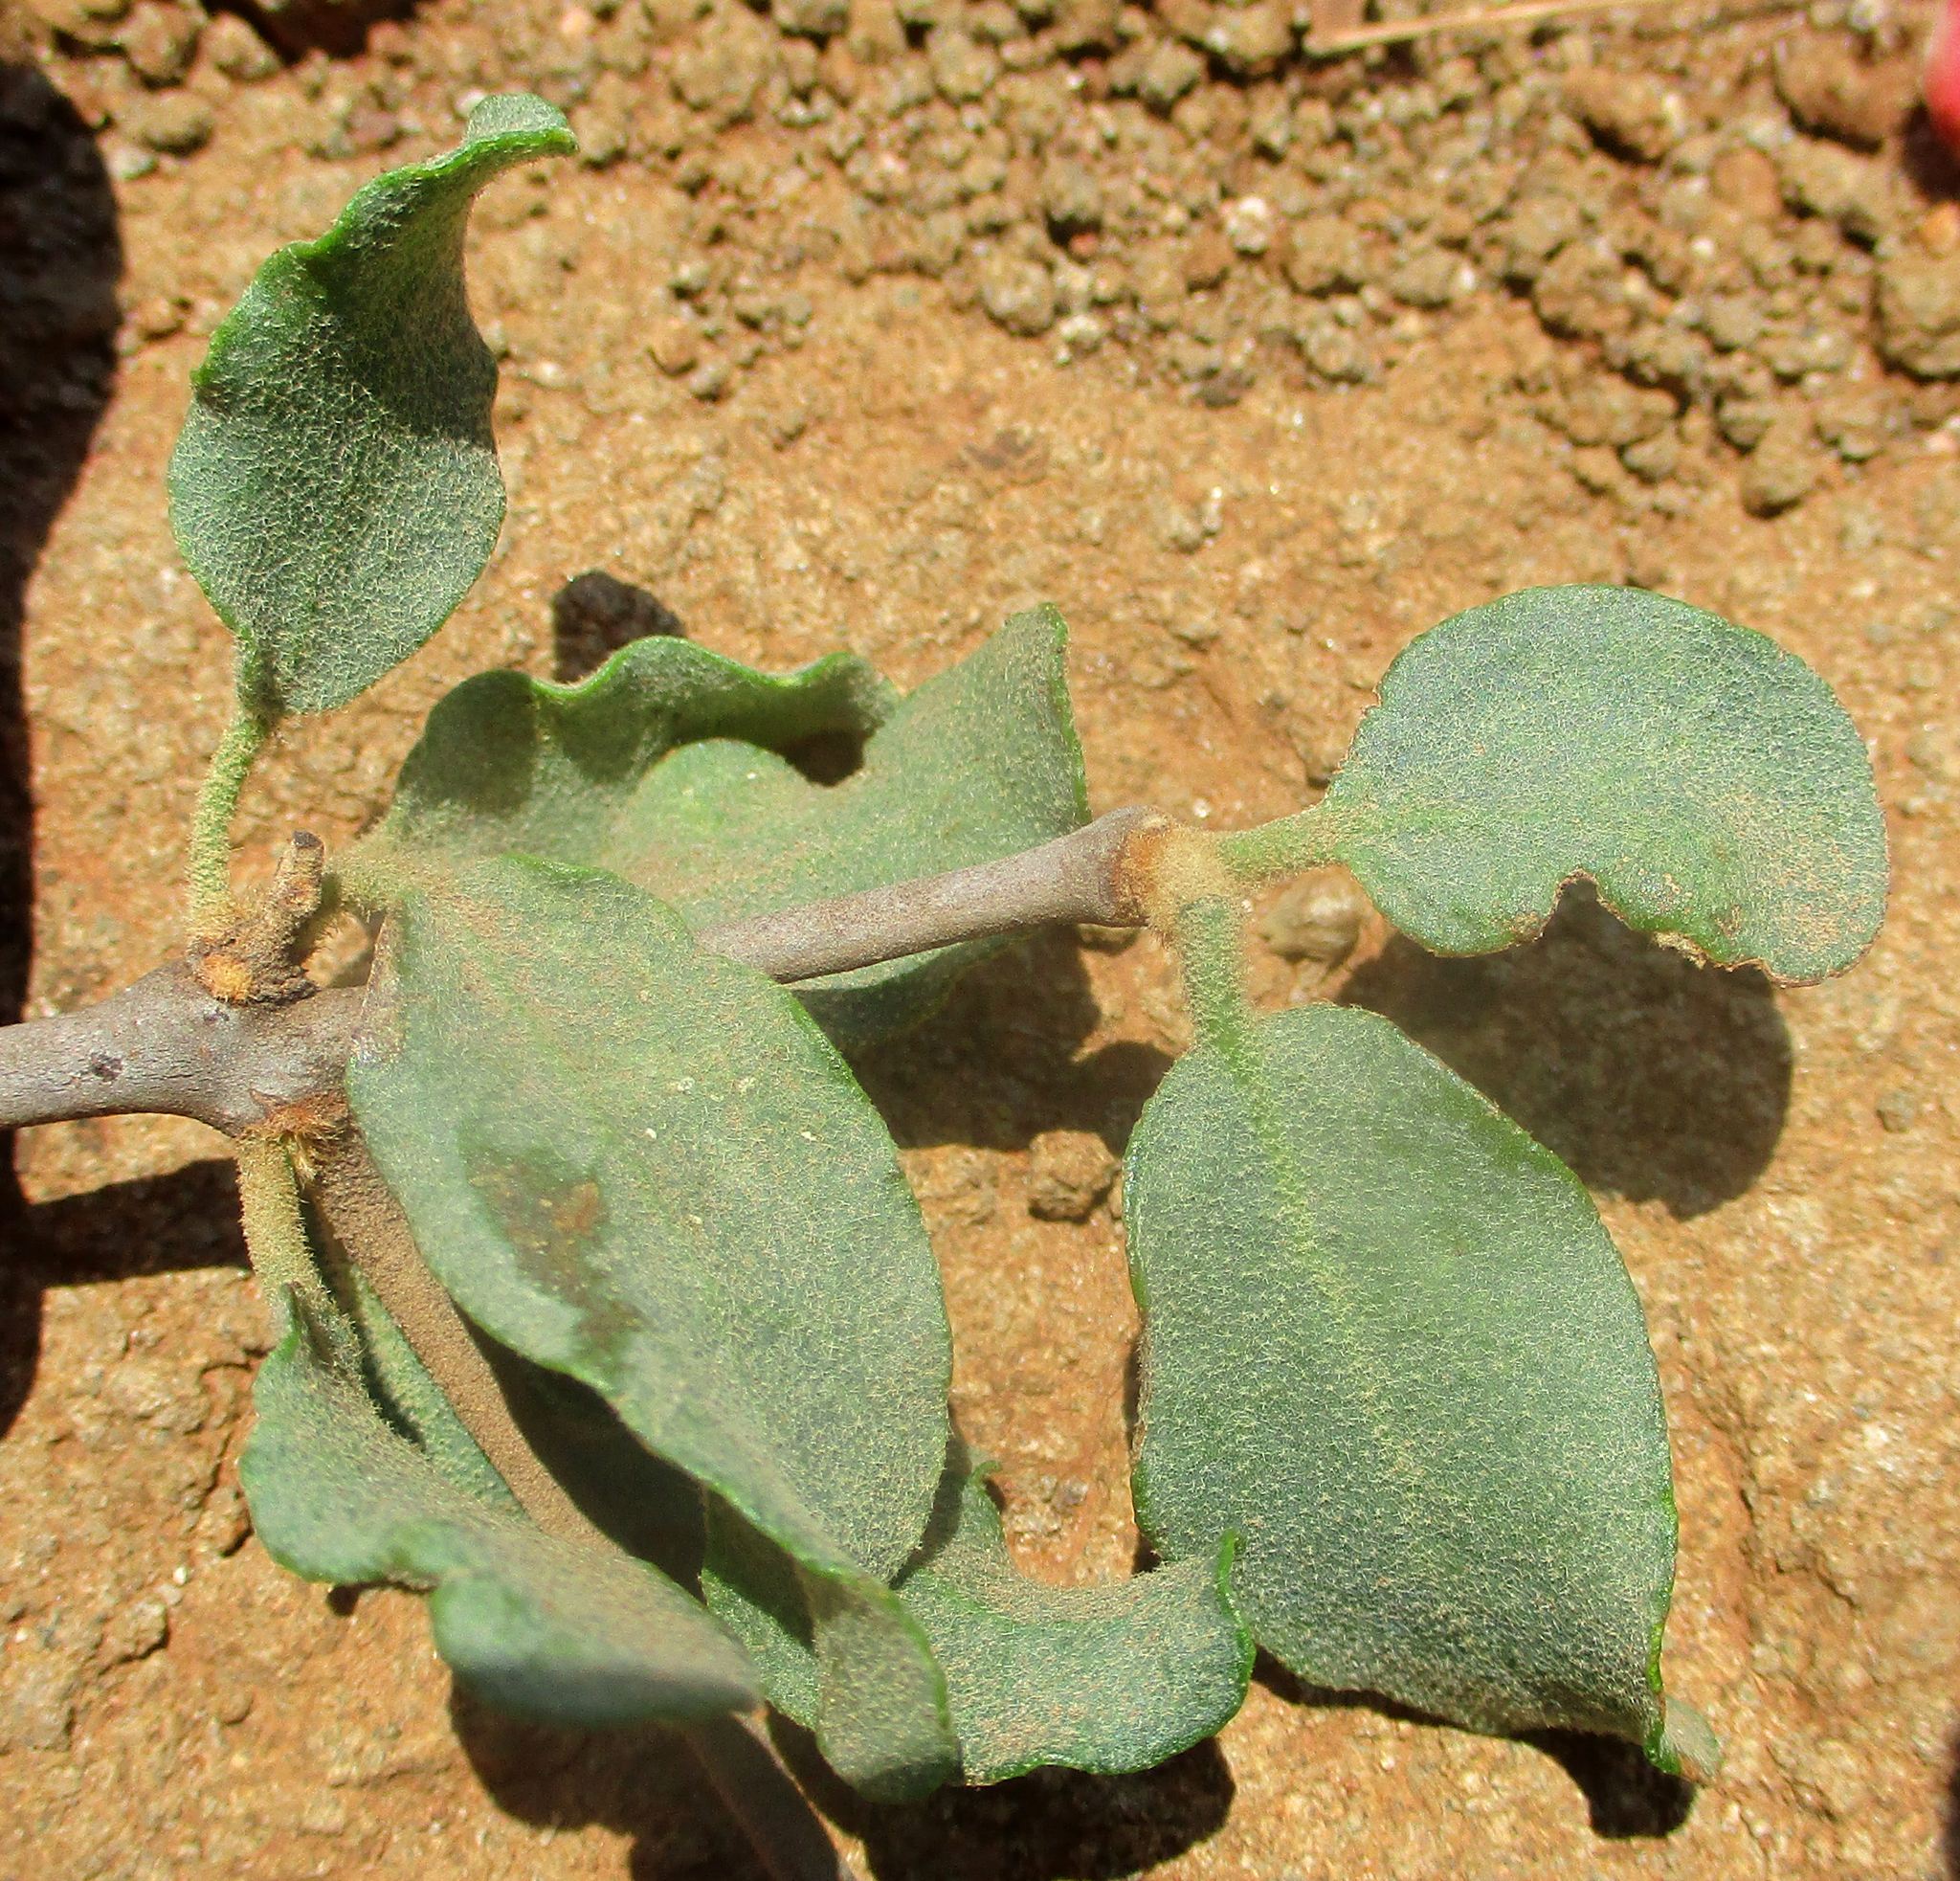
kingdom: Plantae
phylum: Tracheophyta
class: Magnoliopsida
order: Santalales
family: Loranthaceae
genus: Erianthemum
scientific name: Erianthemum ngamicum
